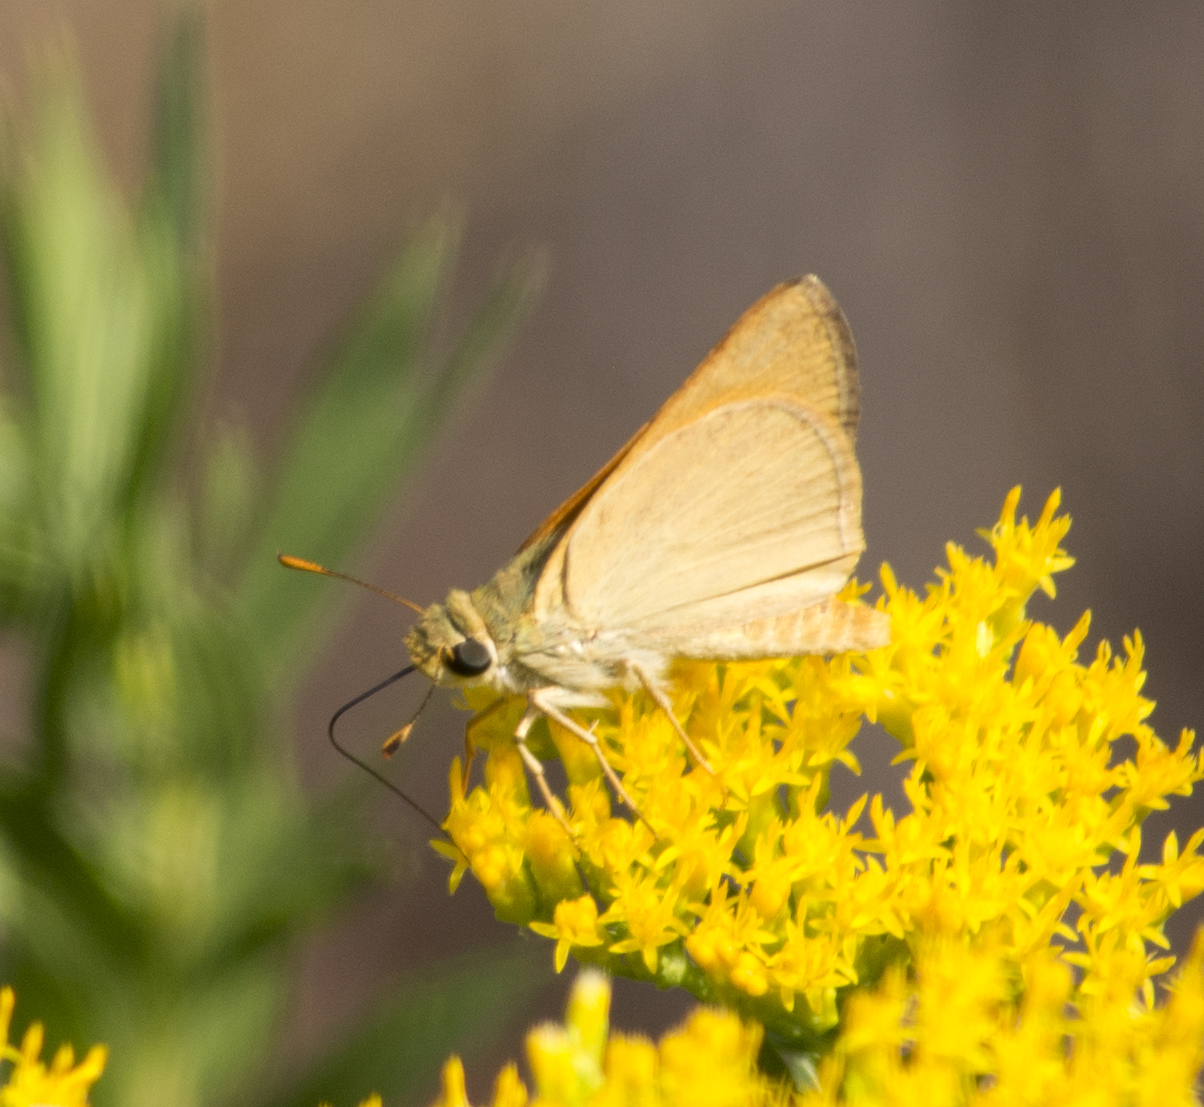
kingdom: Animalia
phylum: Arthropoda
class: Insecta
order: Lepidoptera
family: Hesperiidae
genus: Ochlodes
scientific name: Ochlodes sylvanoides
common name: Woodland skipper
